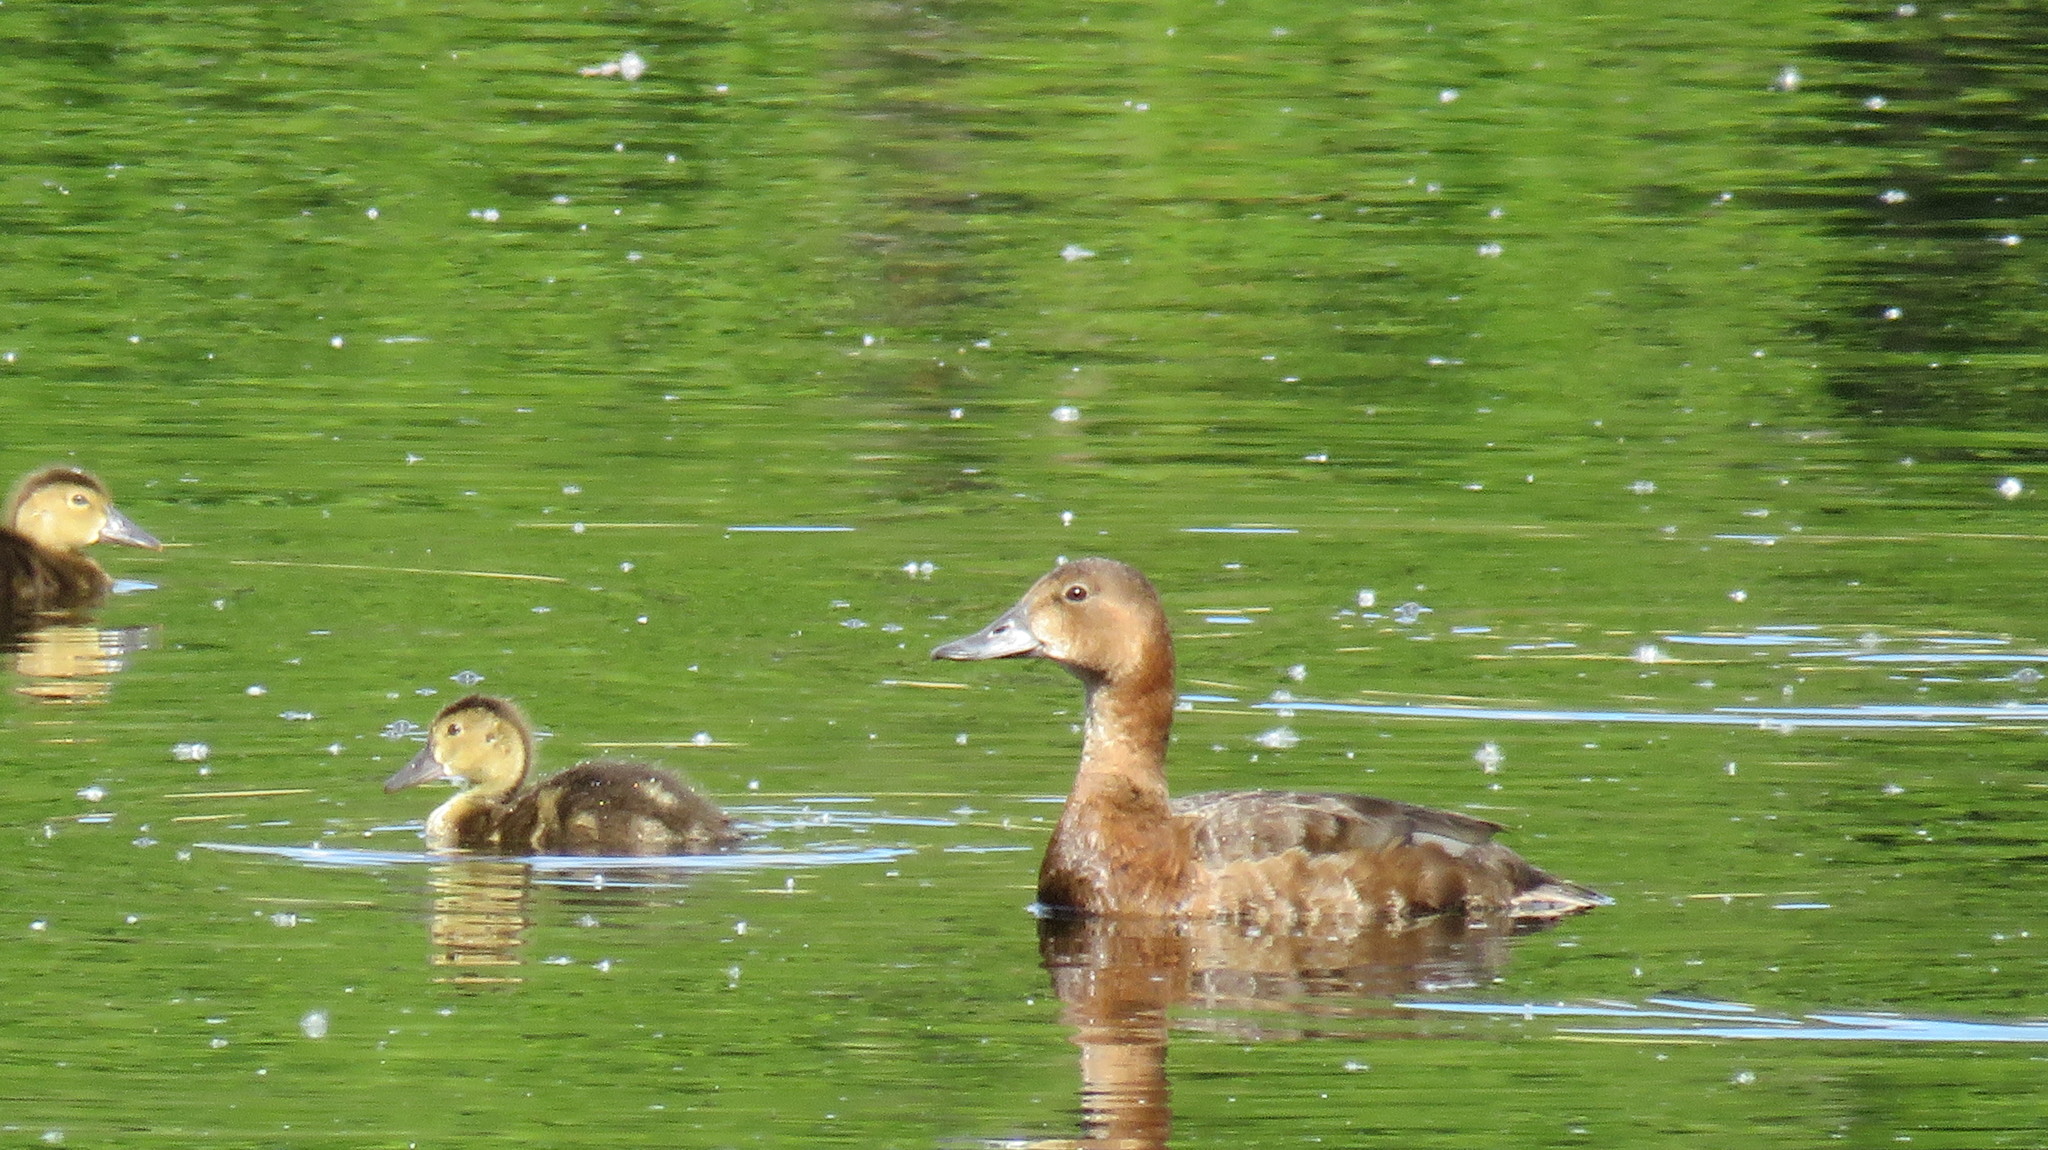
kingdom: Animalia
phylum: Chordata
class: Aves
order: Anseriformes
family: Anatidae
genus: Aythya
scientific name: Aythya ferina
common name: Common pochard
